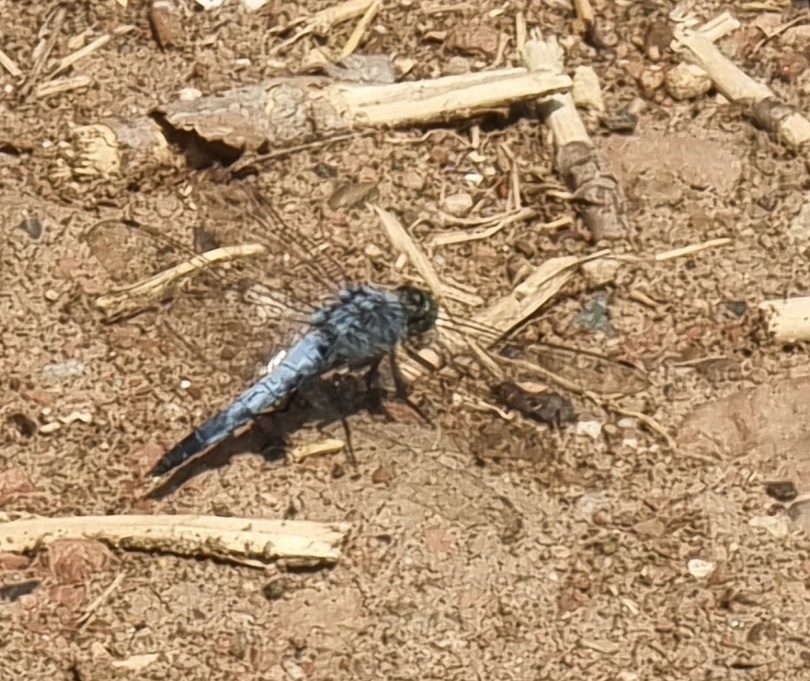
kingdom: Animalia
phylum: Arthropoda
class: Insecta
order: Odonata
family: Libellulidae
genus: Orthetrum
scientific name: Orthetrum cancellatum
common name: Black-tailed skimmer
